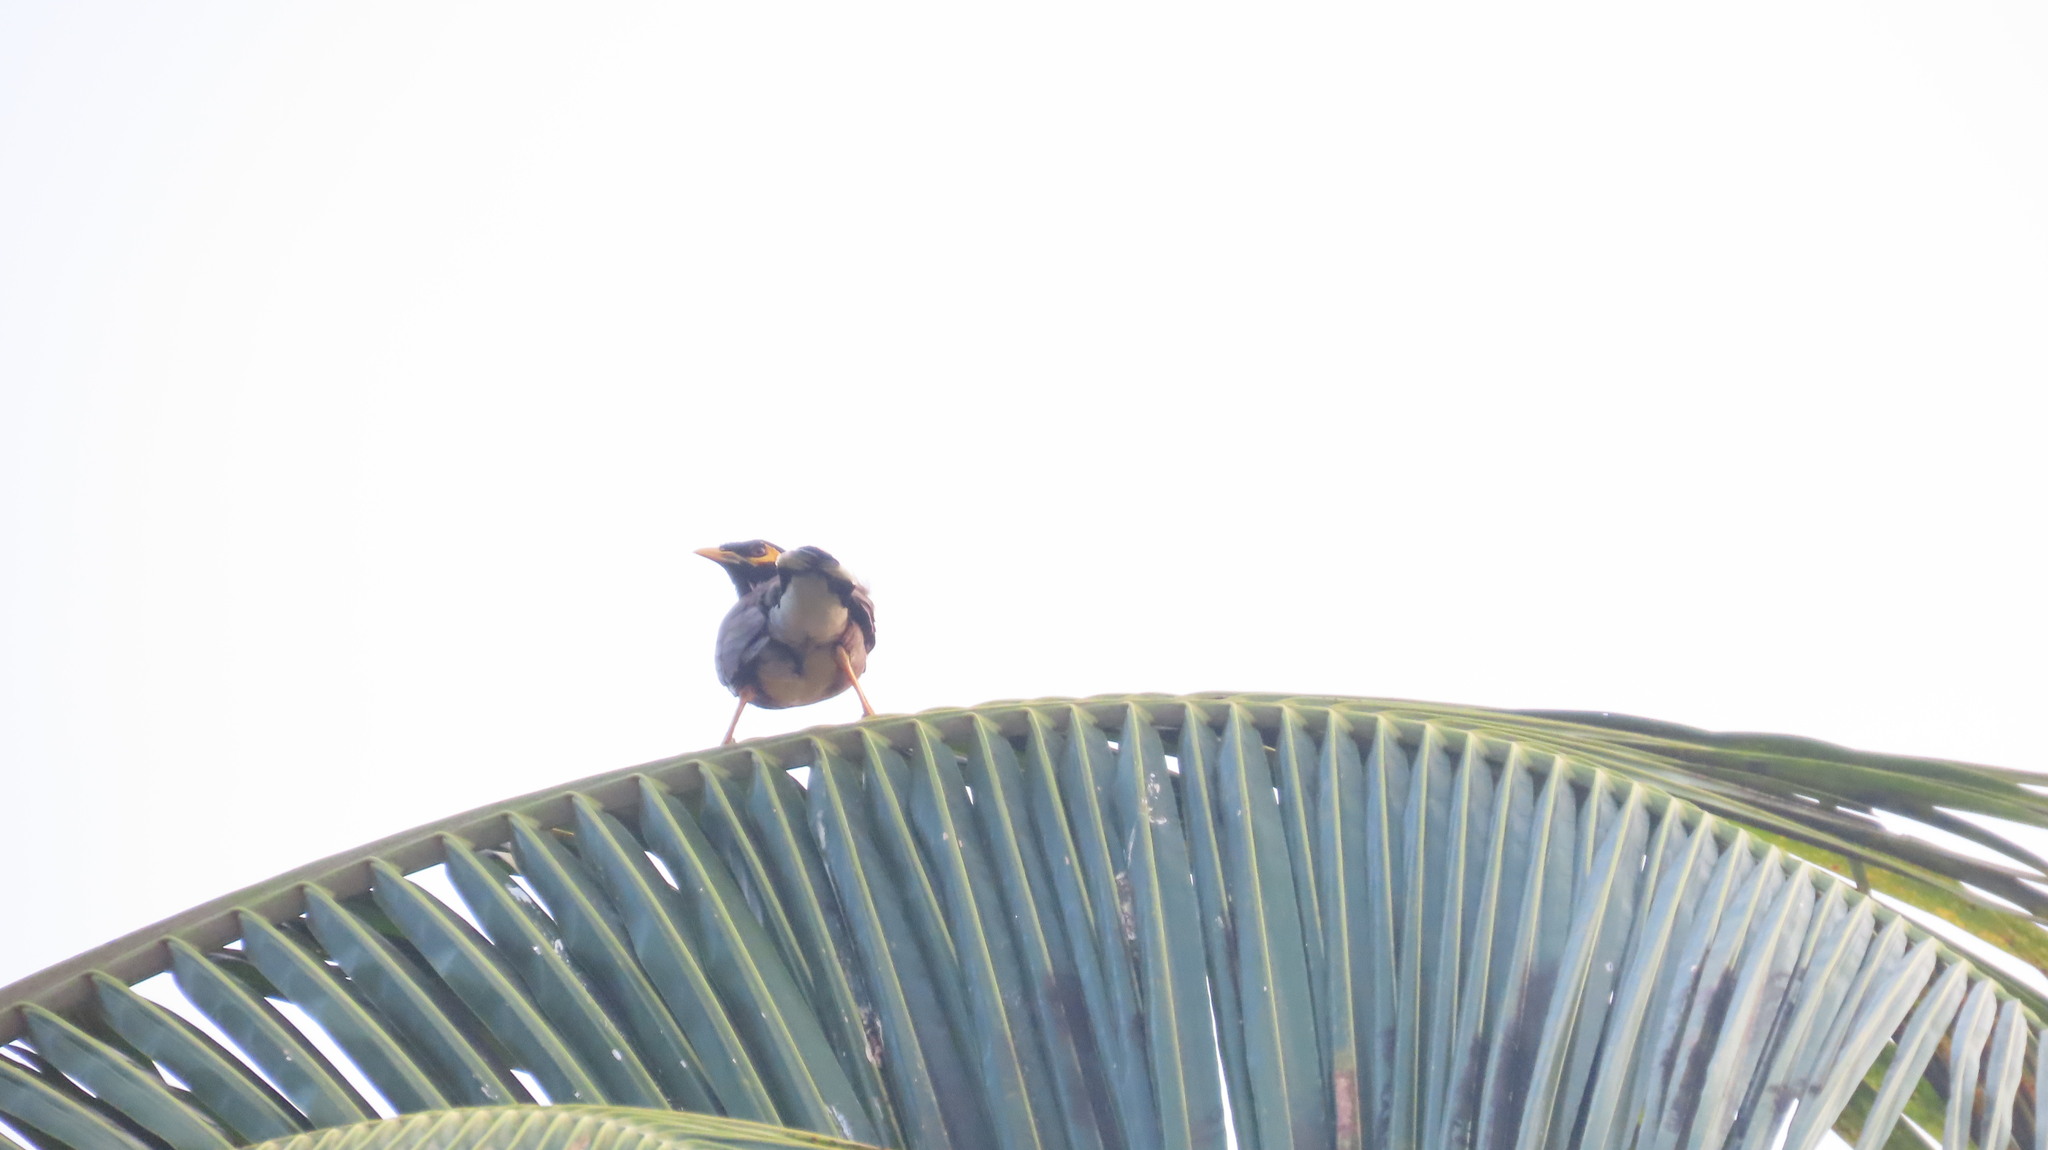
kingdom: Animalia
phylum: Chordata
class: Aves
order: Passeriformes
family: Sturnidae
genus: Acridotheres
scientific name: Acridotheres tristis
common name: Common myna
